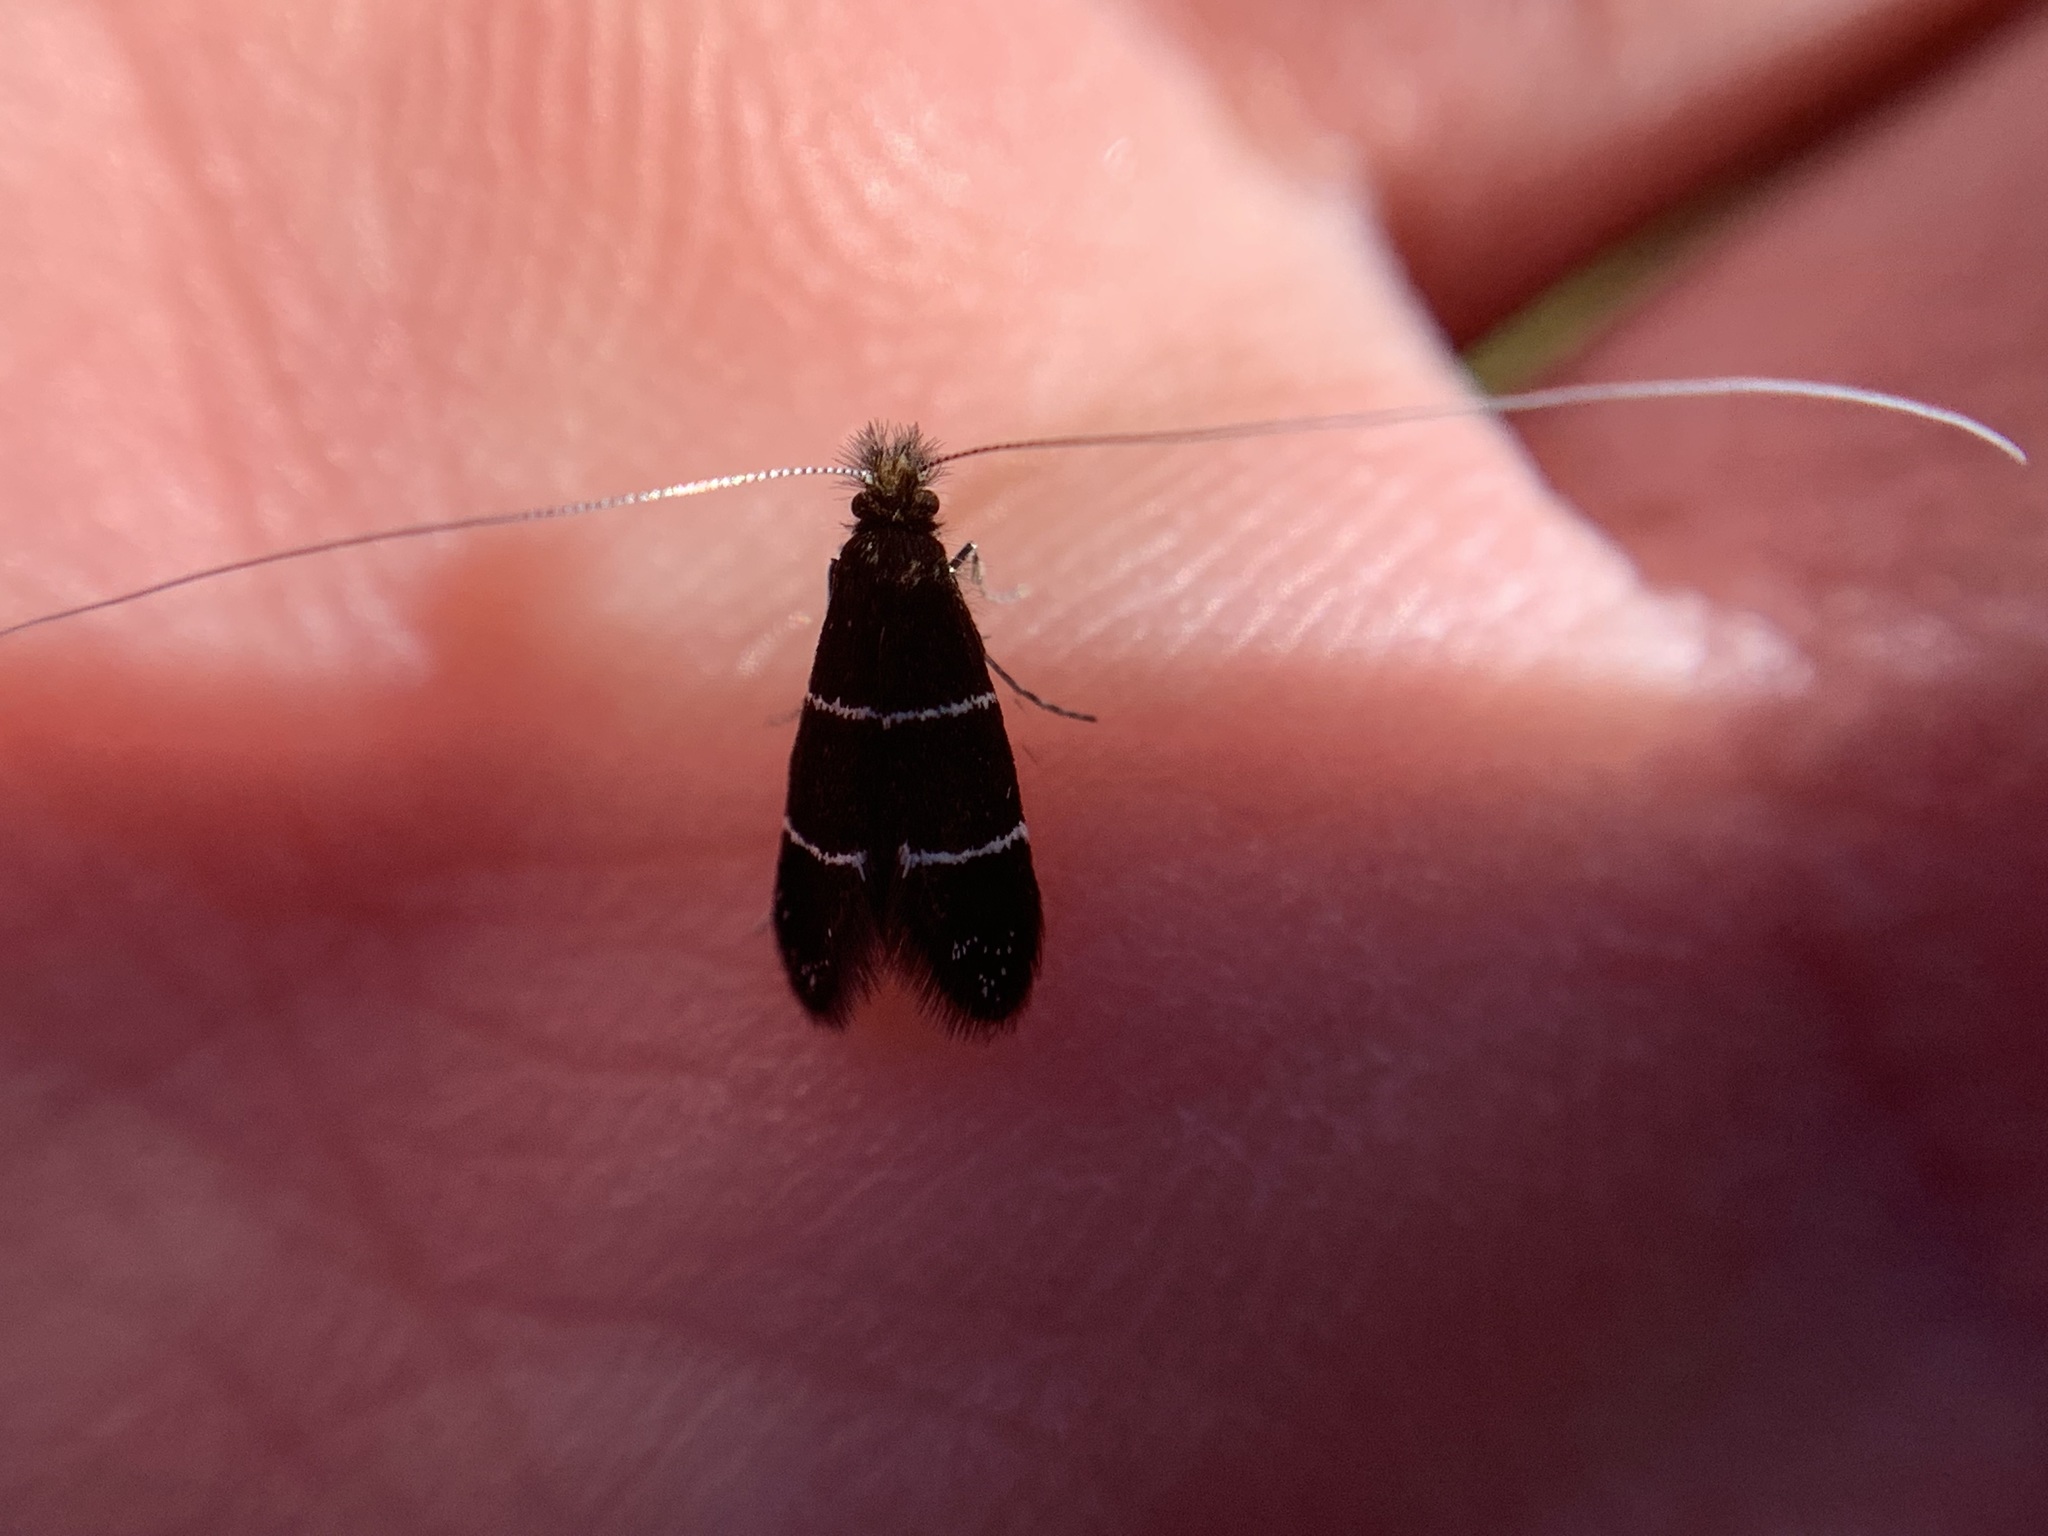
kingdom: Animalia
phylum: Arthropoda
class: Insecta
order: Lepidoptera
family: Adelidae
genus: Adela
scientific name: Adela septentrionella
